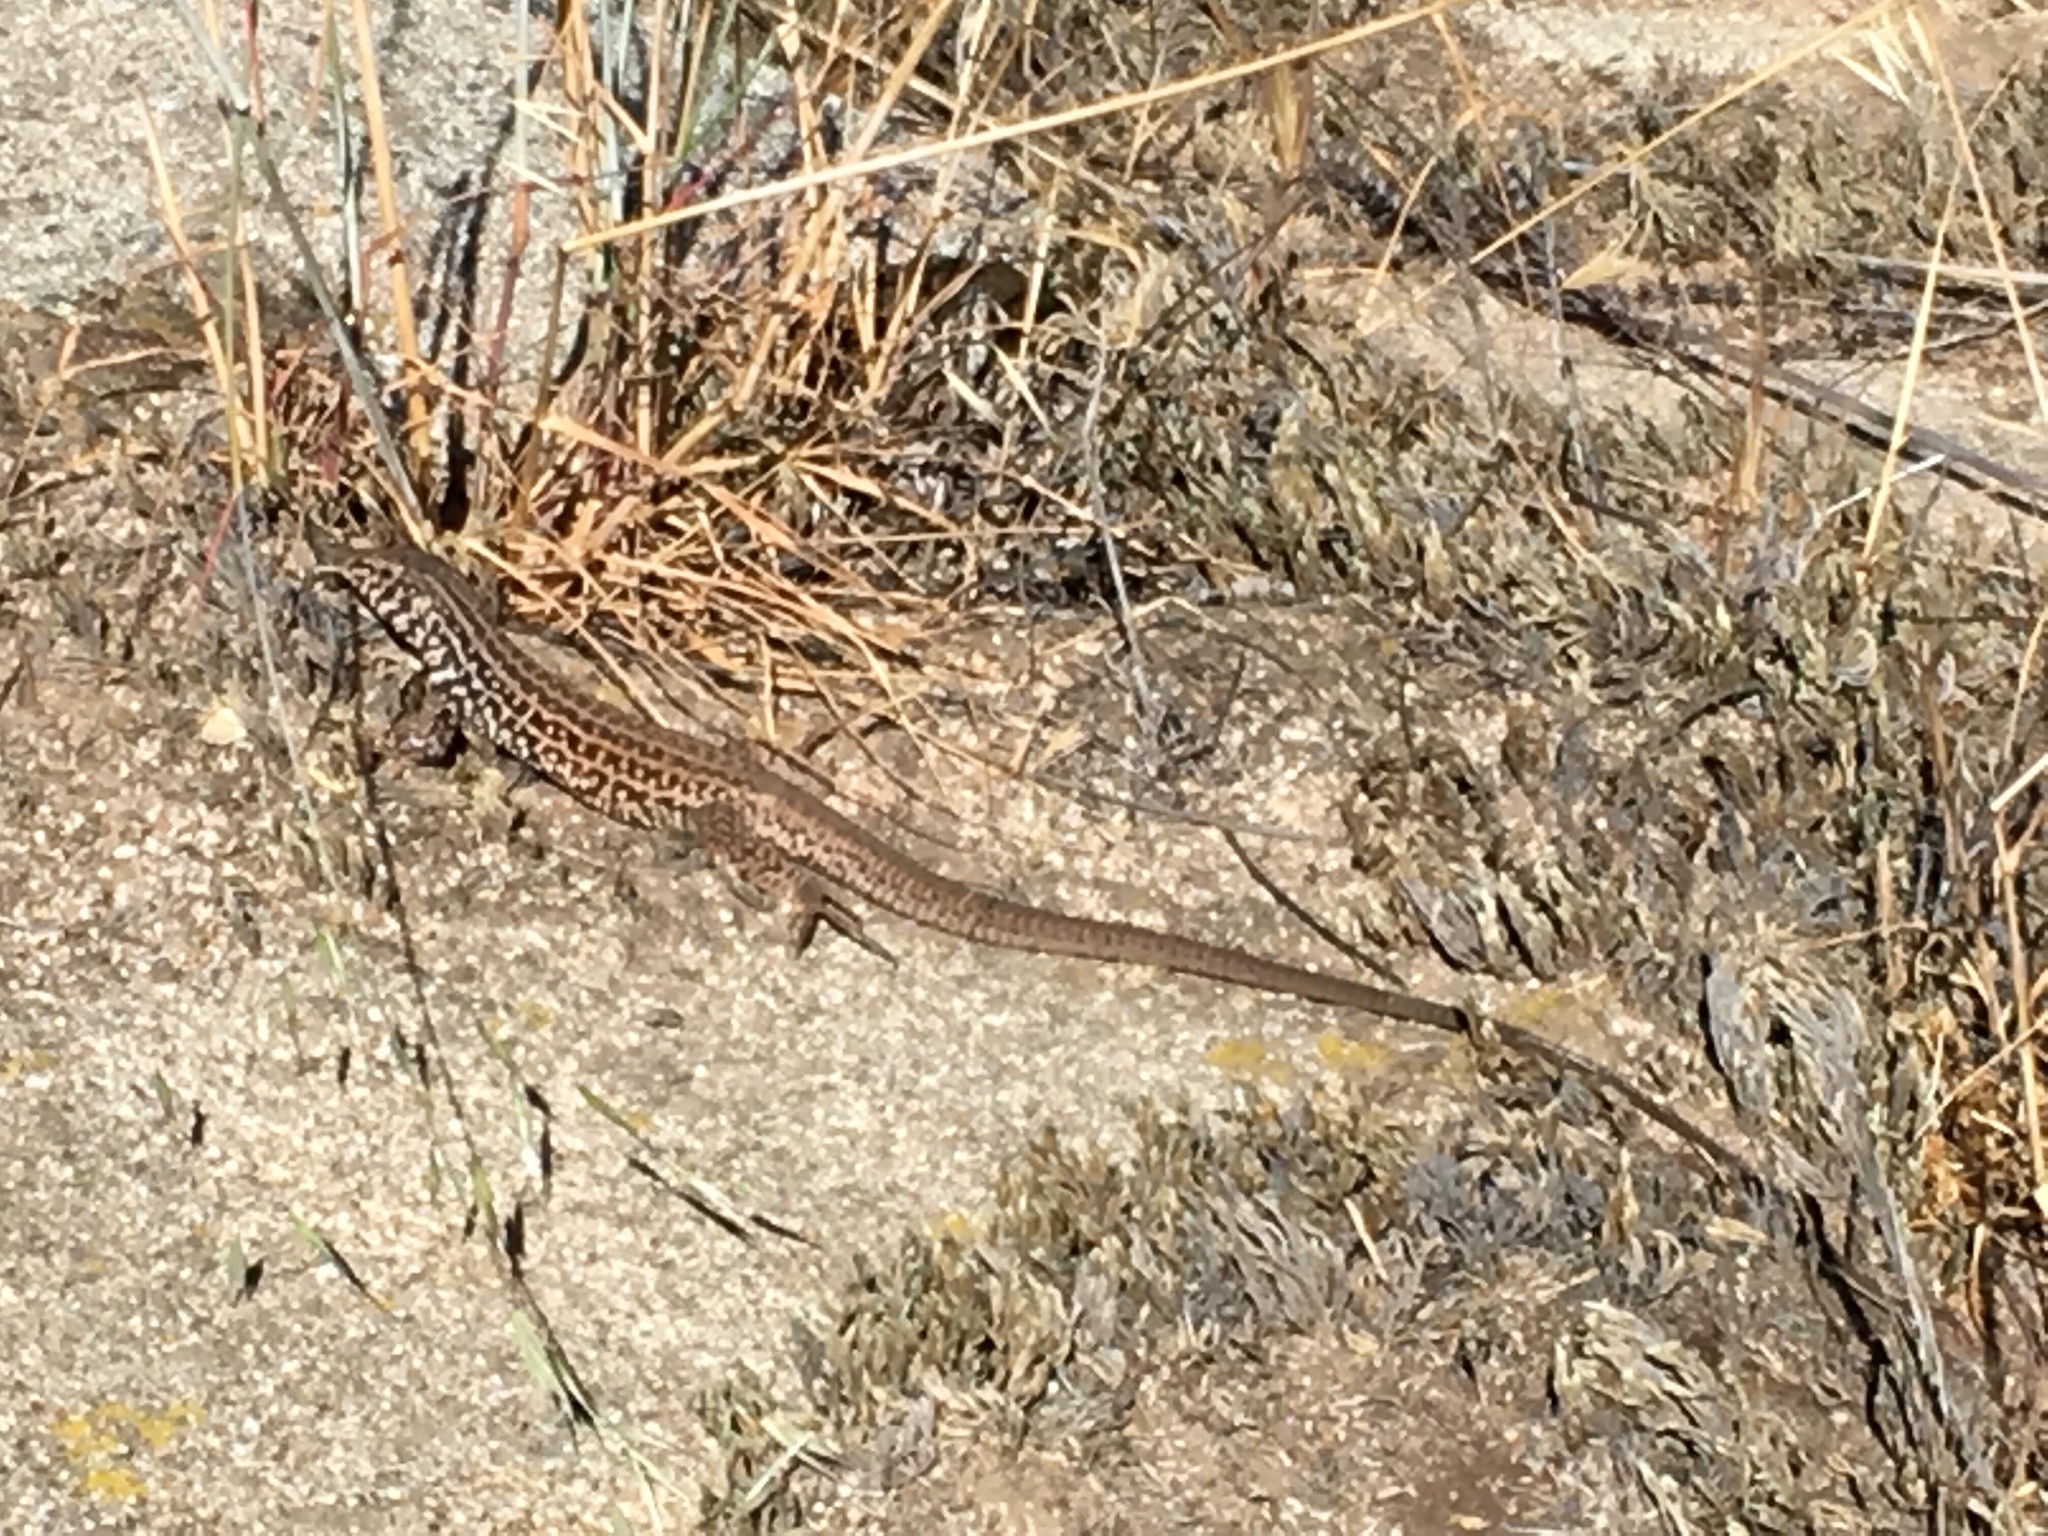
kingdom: Animalia
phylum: Chordata
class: Squamata
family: Teiidae
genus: Aspidoscelis
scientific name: Aspidoscelis tigris
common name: Tiger whiptail
